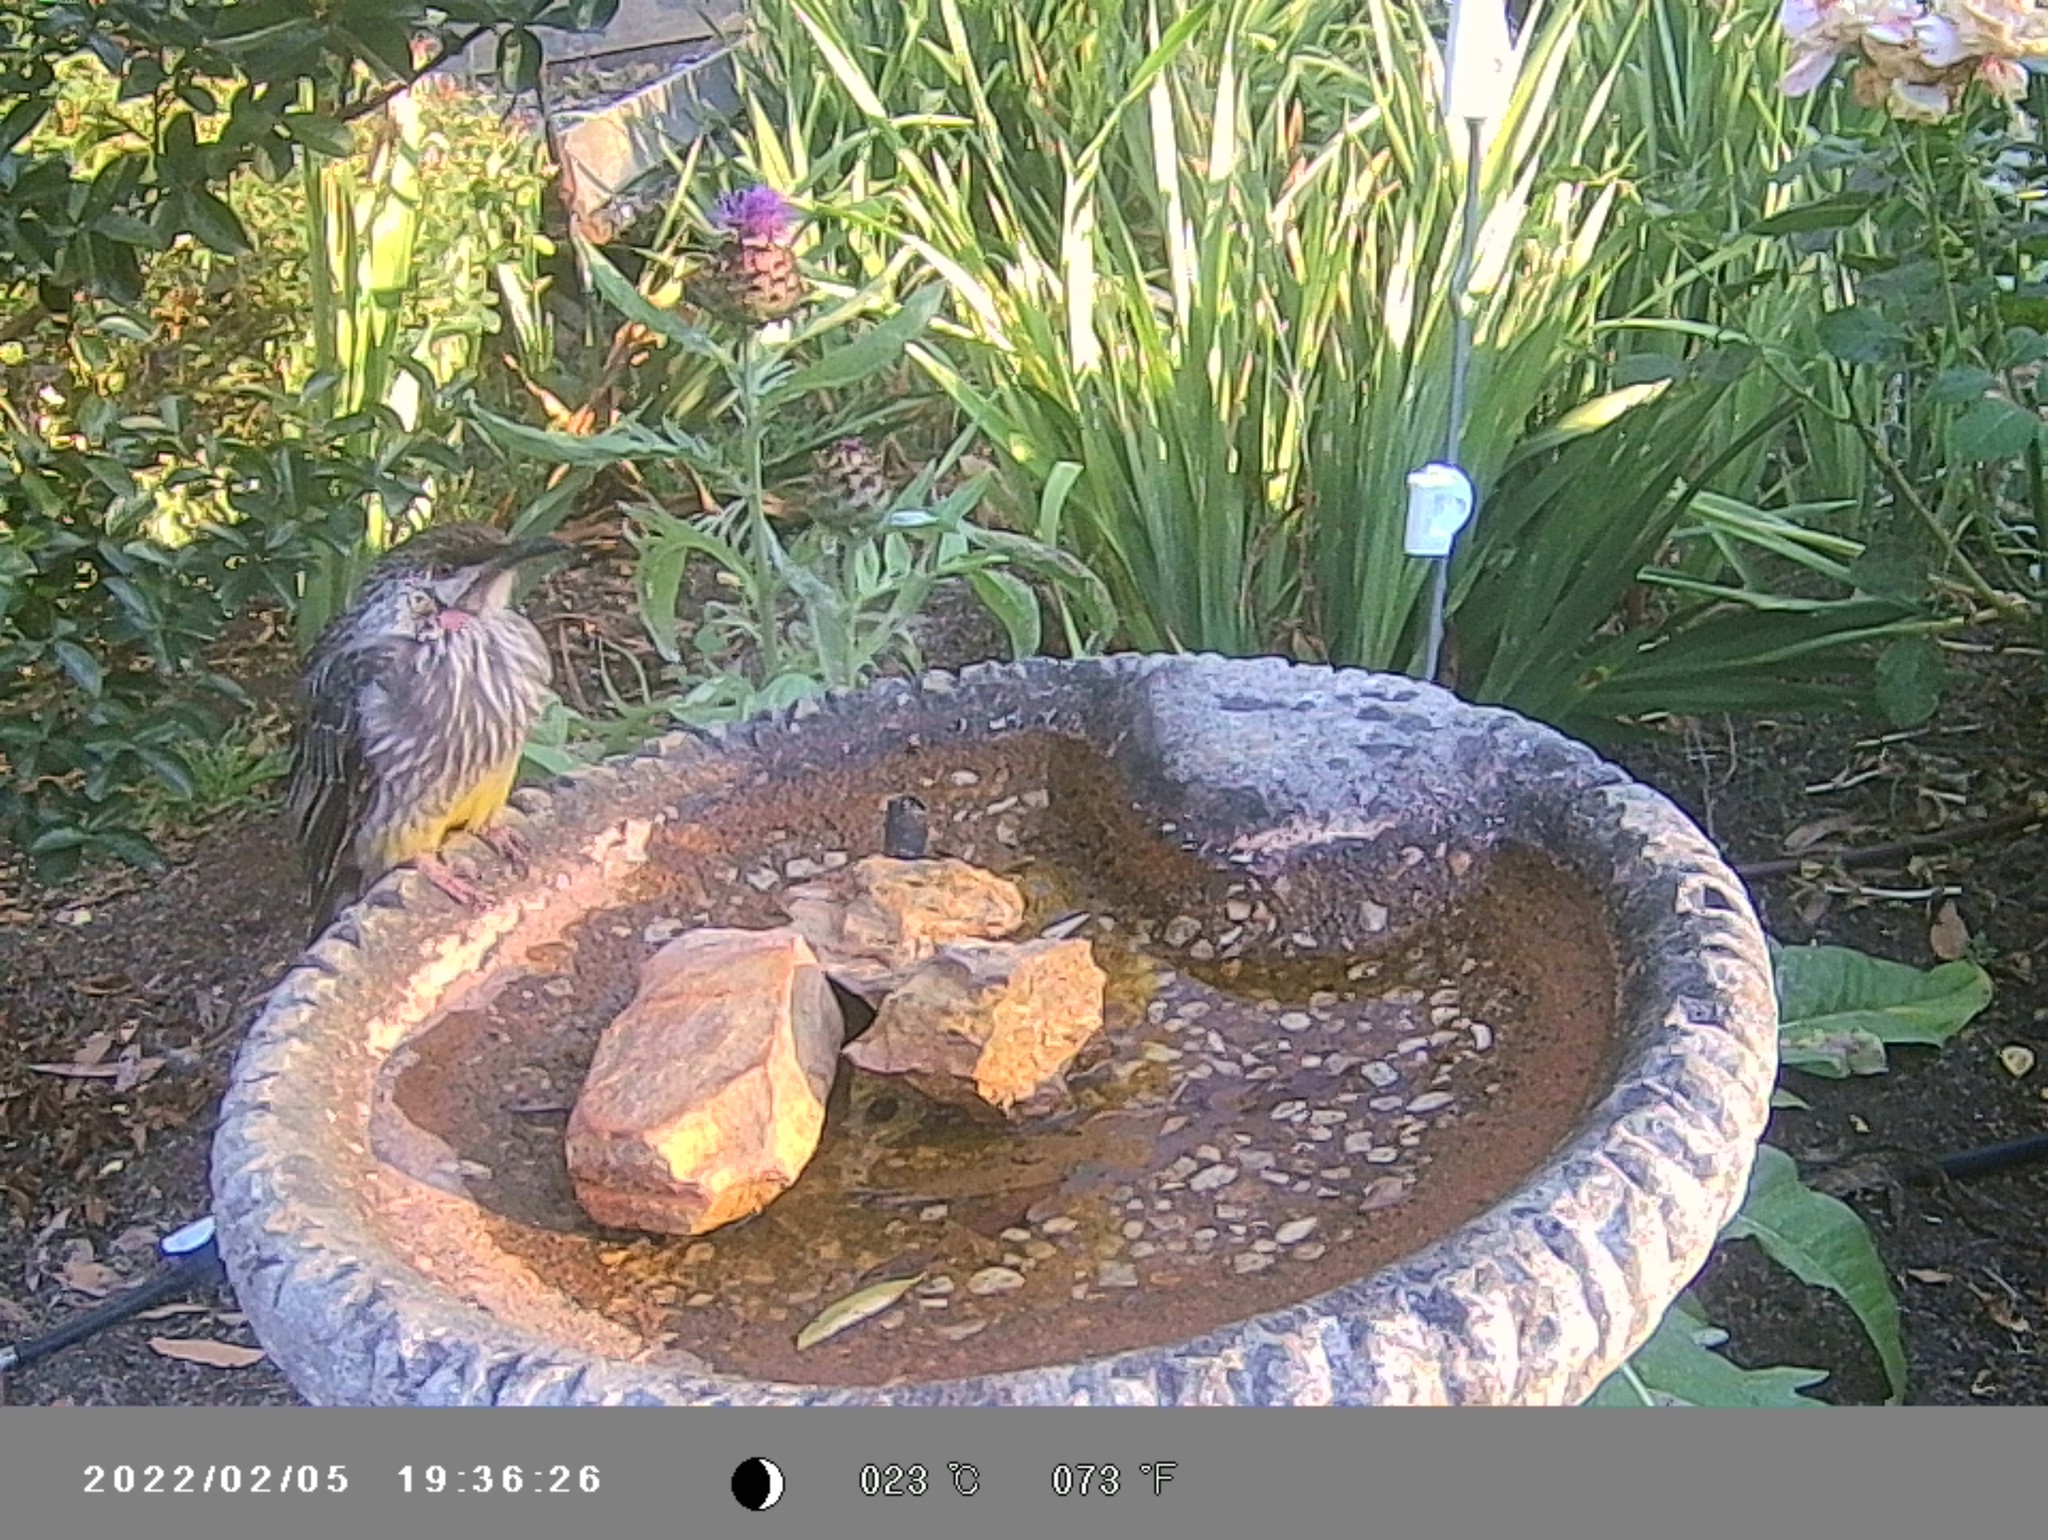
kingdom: Animalia
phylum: Chordata
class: Aves
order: Passeriformes
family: Meliphagidae
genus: Anthochaera
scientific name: Anthochaera carunculata
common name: Red wattlebird
